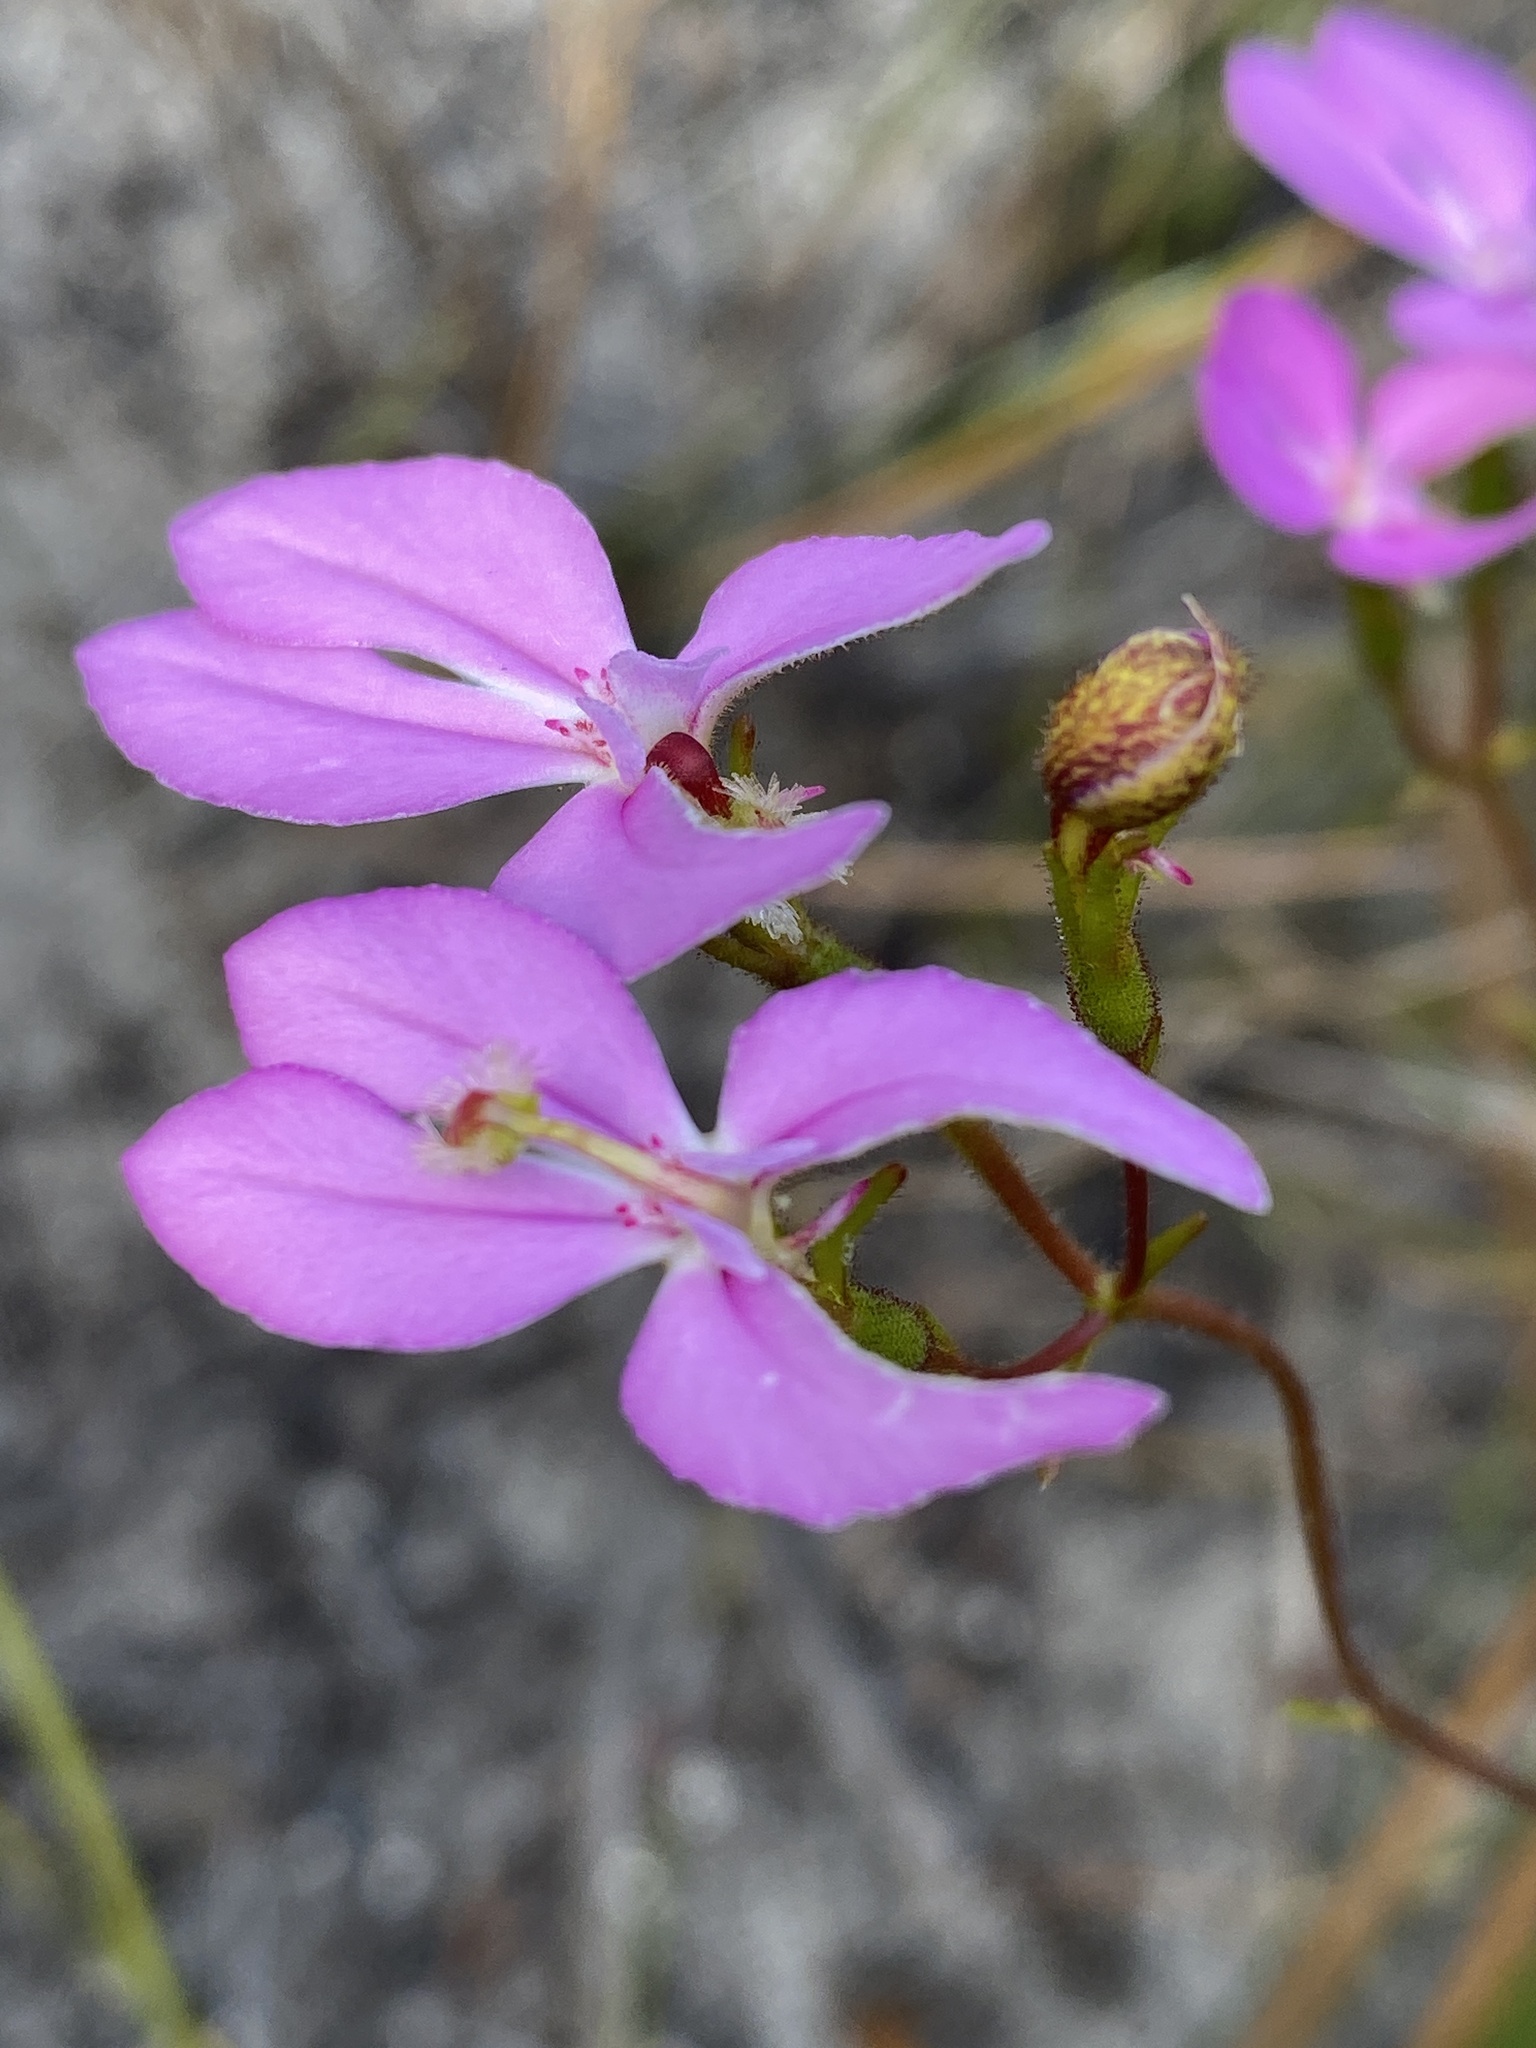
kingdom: Plantae
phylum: Tracheophyta
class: Magnoliopsida
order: Asterales
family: Stylidiaceae
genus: Stylidium
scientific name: Stylidium macranthum
